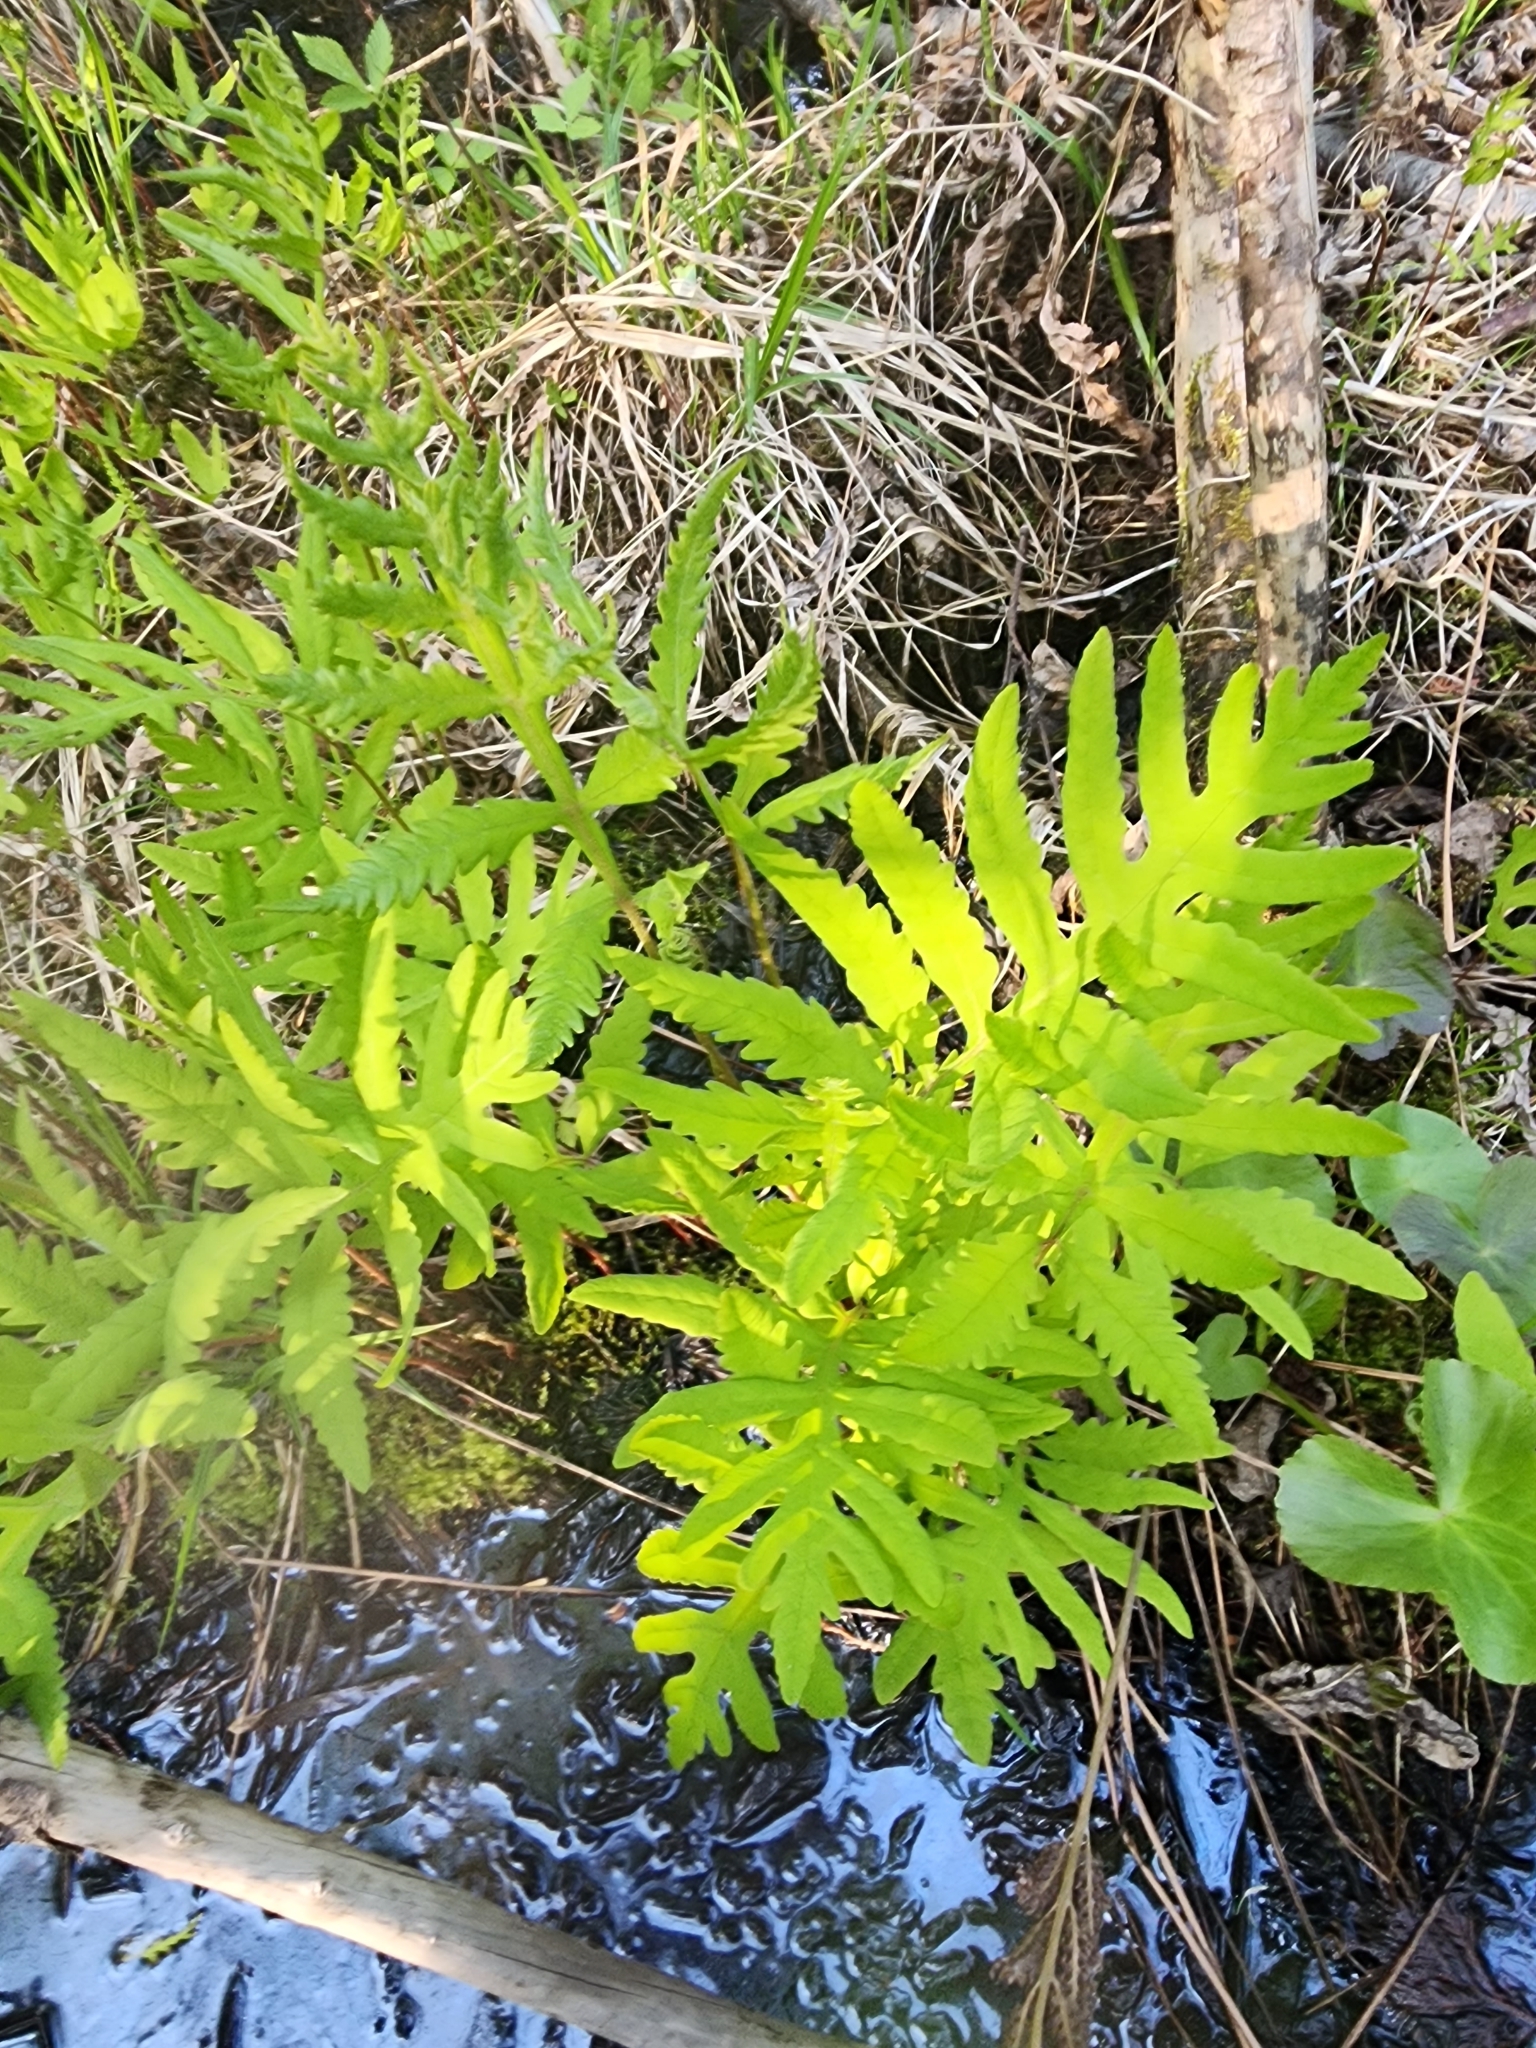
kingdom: Plantae
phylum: Tracheophyta
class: Polypodiopsida
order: Polypodiales
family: Onocleaceae
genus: Onoclea
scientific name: Onoclea sensibilis
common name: Sensitive fern
